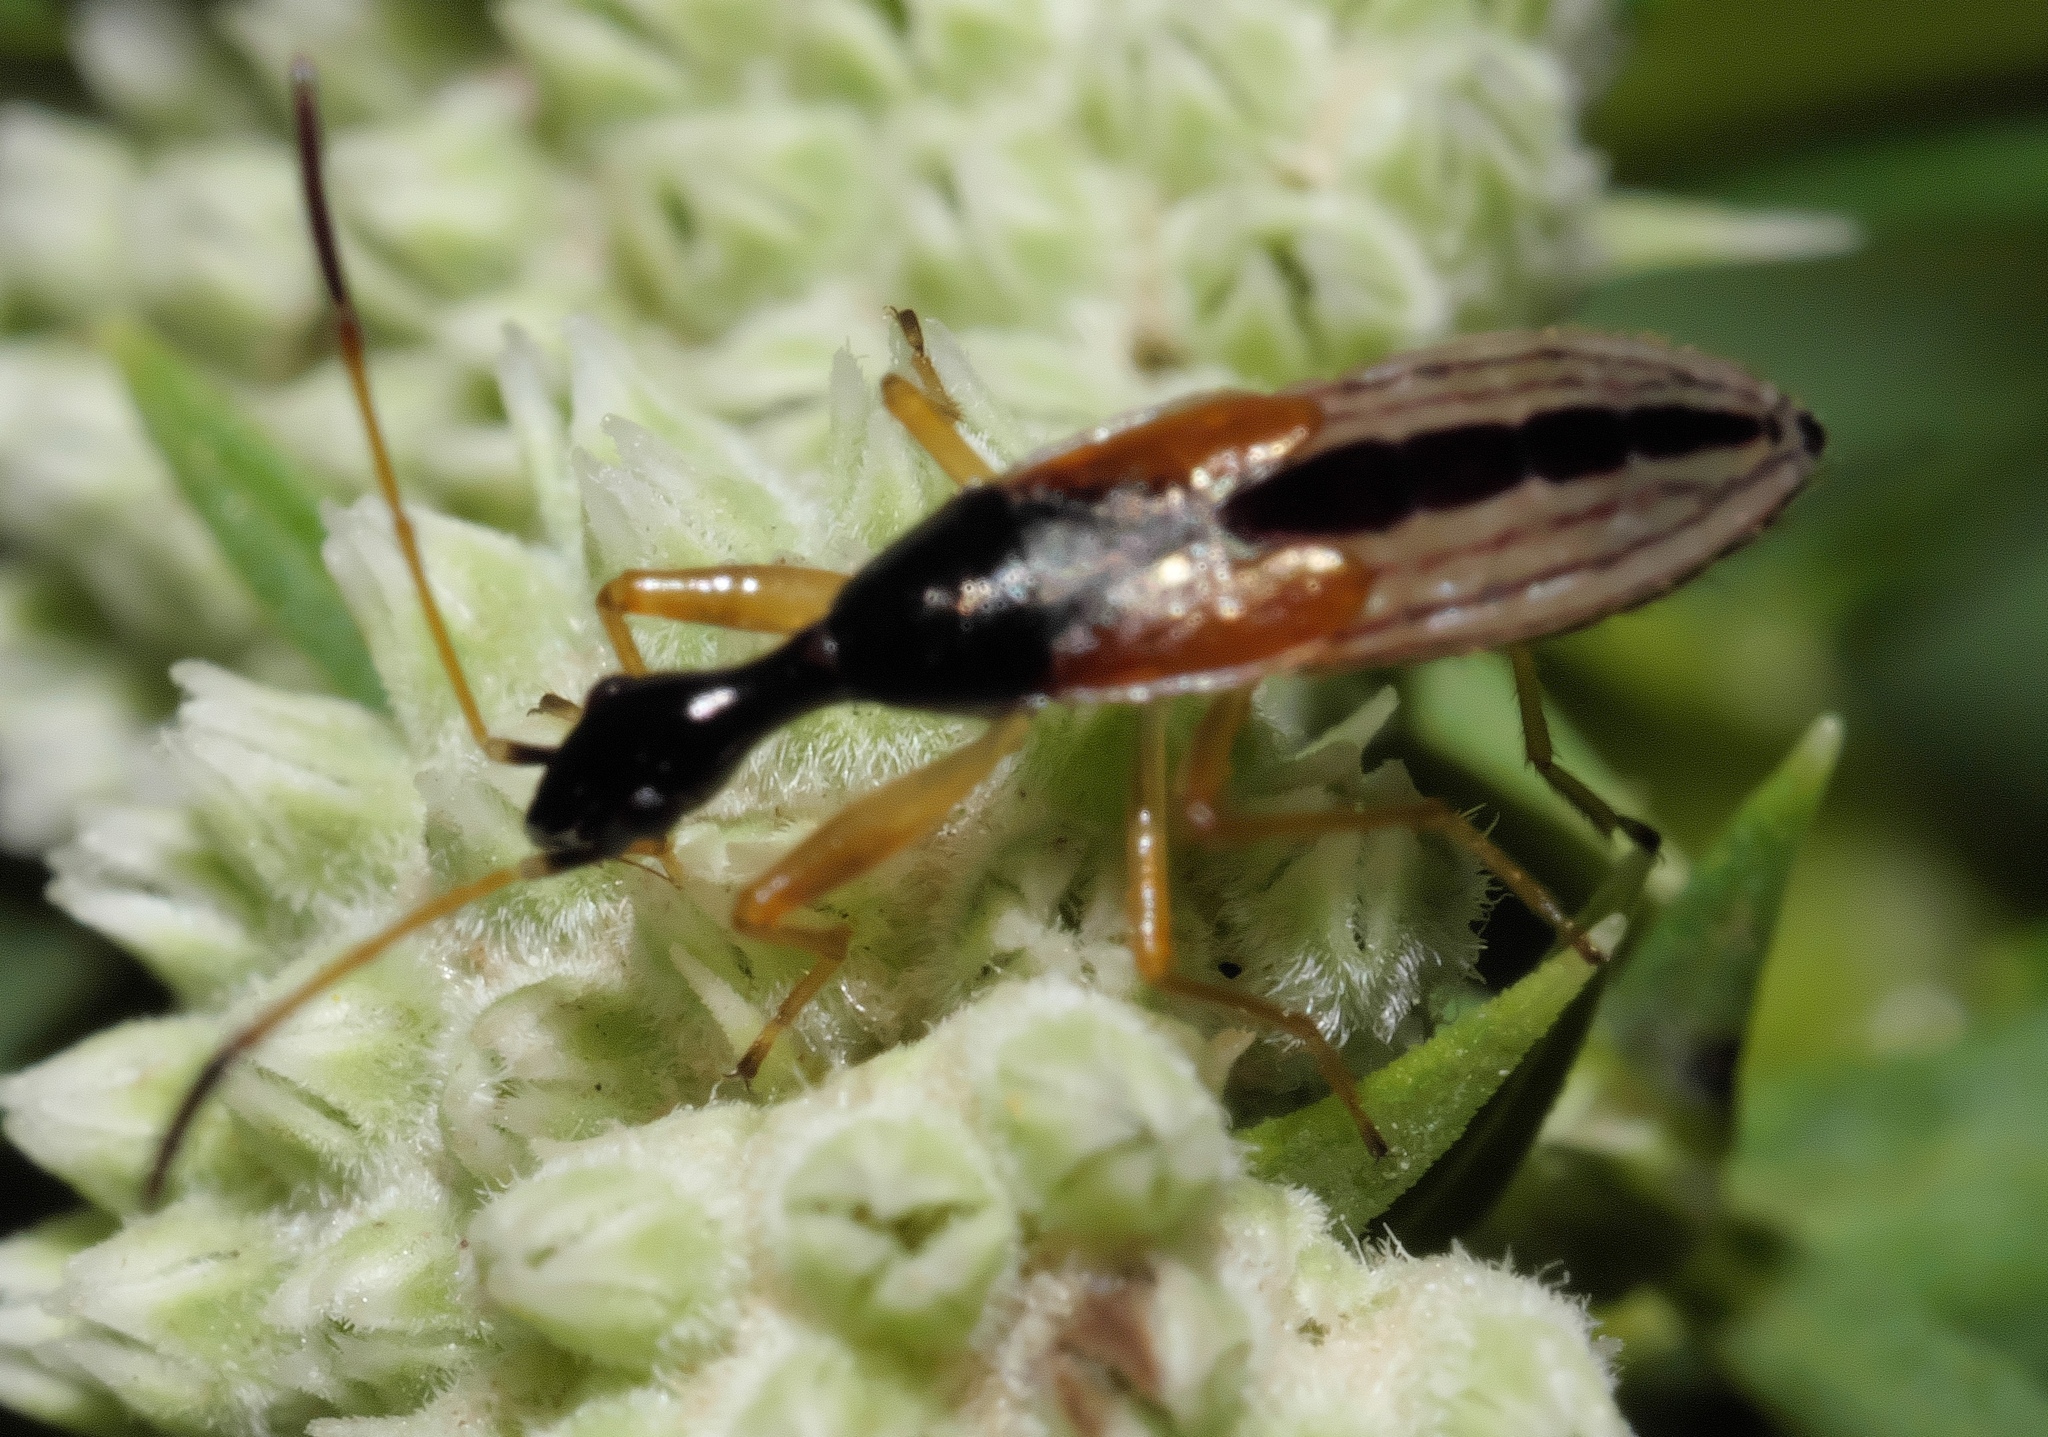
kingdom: Animalia
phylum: Arthropoda
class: Insecta
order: Hemiptera
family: Rhyparochromidae
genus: Myodocha
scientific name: Myodocha serripes
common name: Long-necked seed bug
